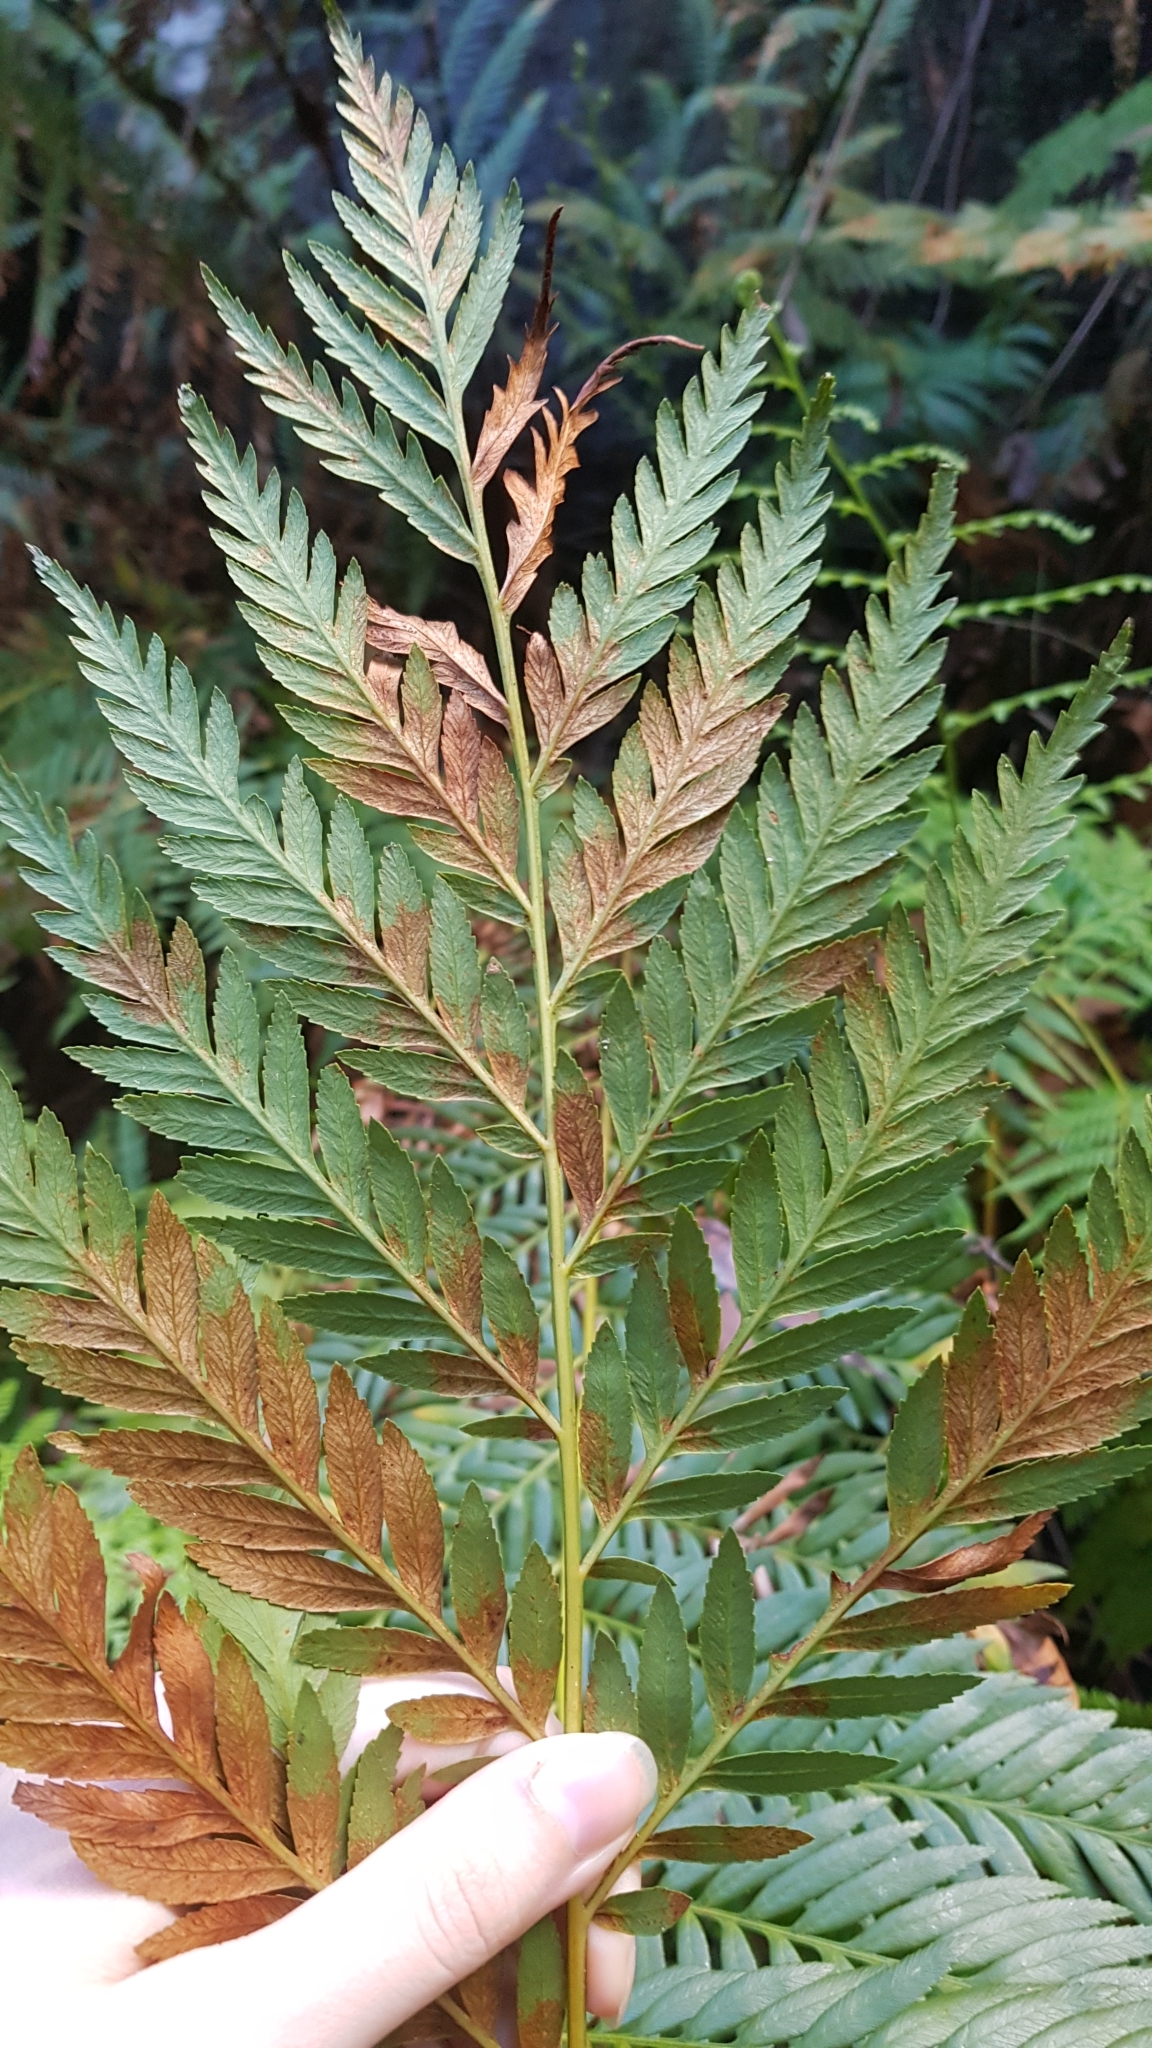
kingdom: Plantae
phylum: Tracheophyta
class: Polypodiopsida
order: Osmundales
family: Osmundaceae
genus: Todea
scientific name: Todea barbara
